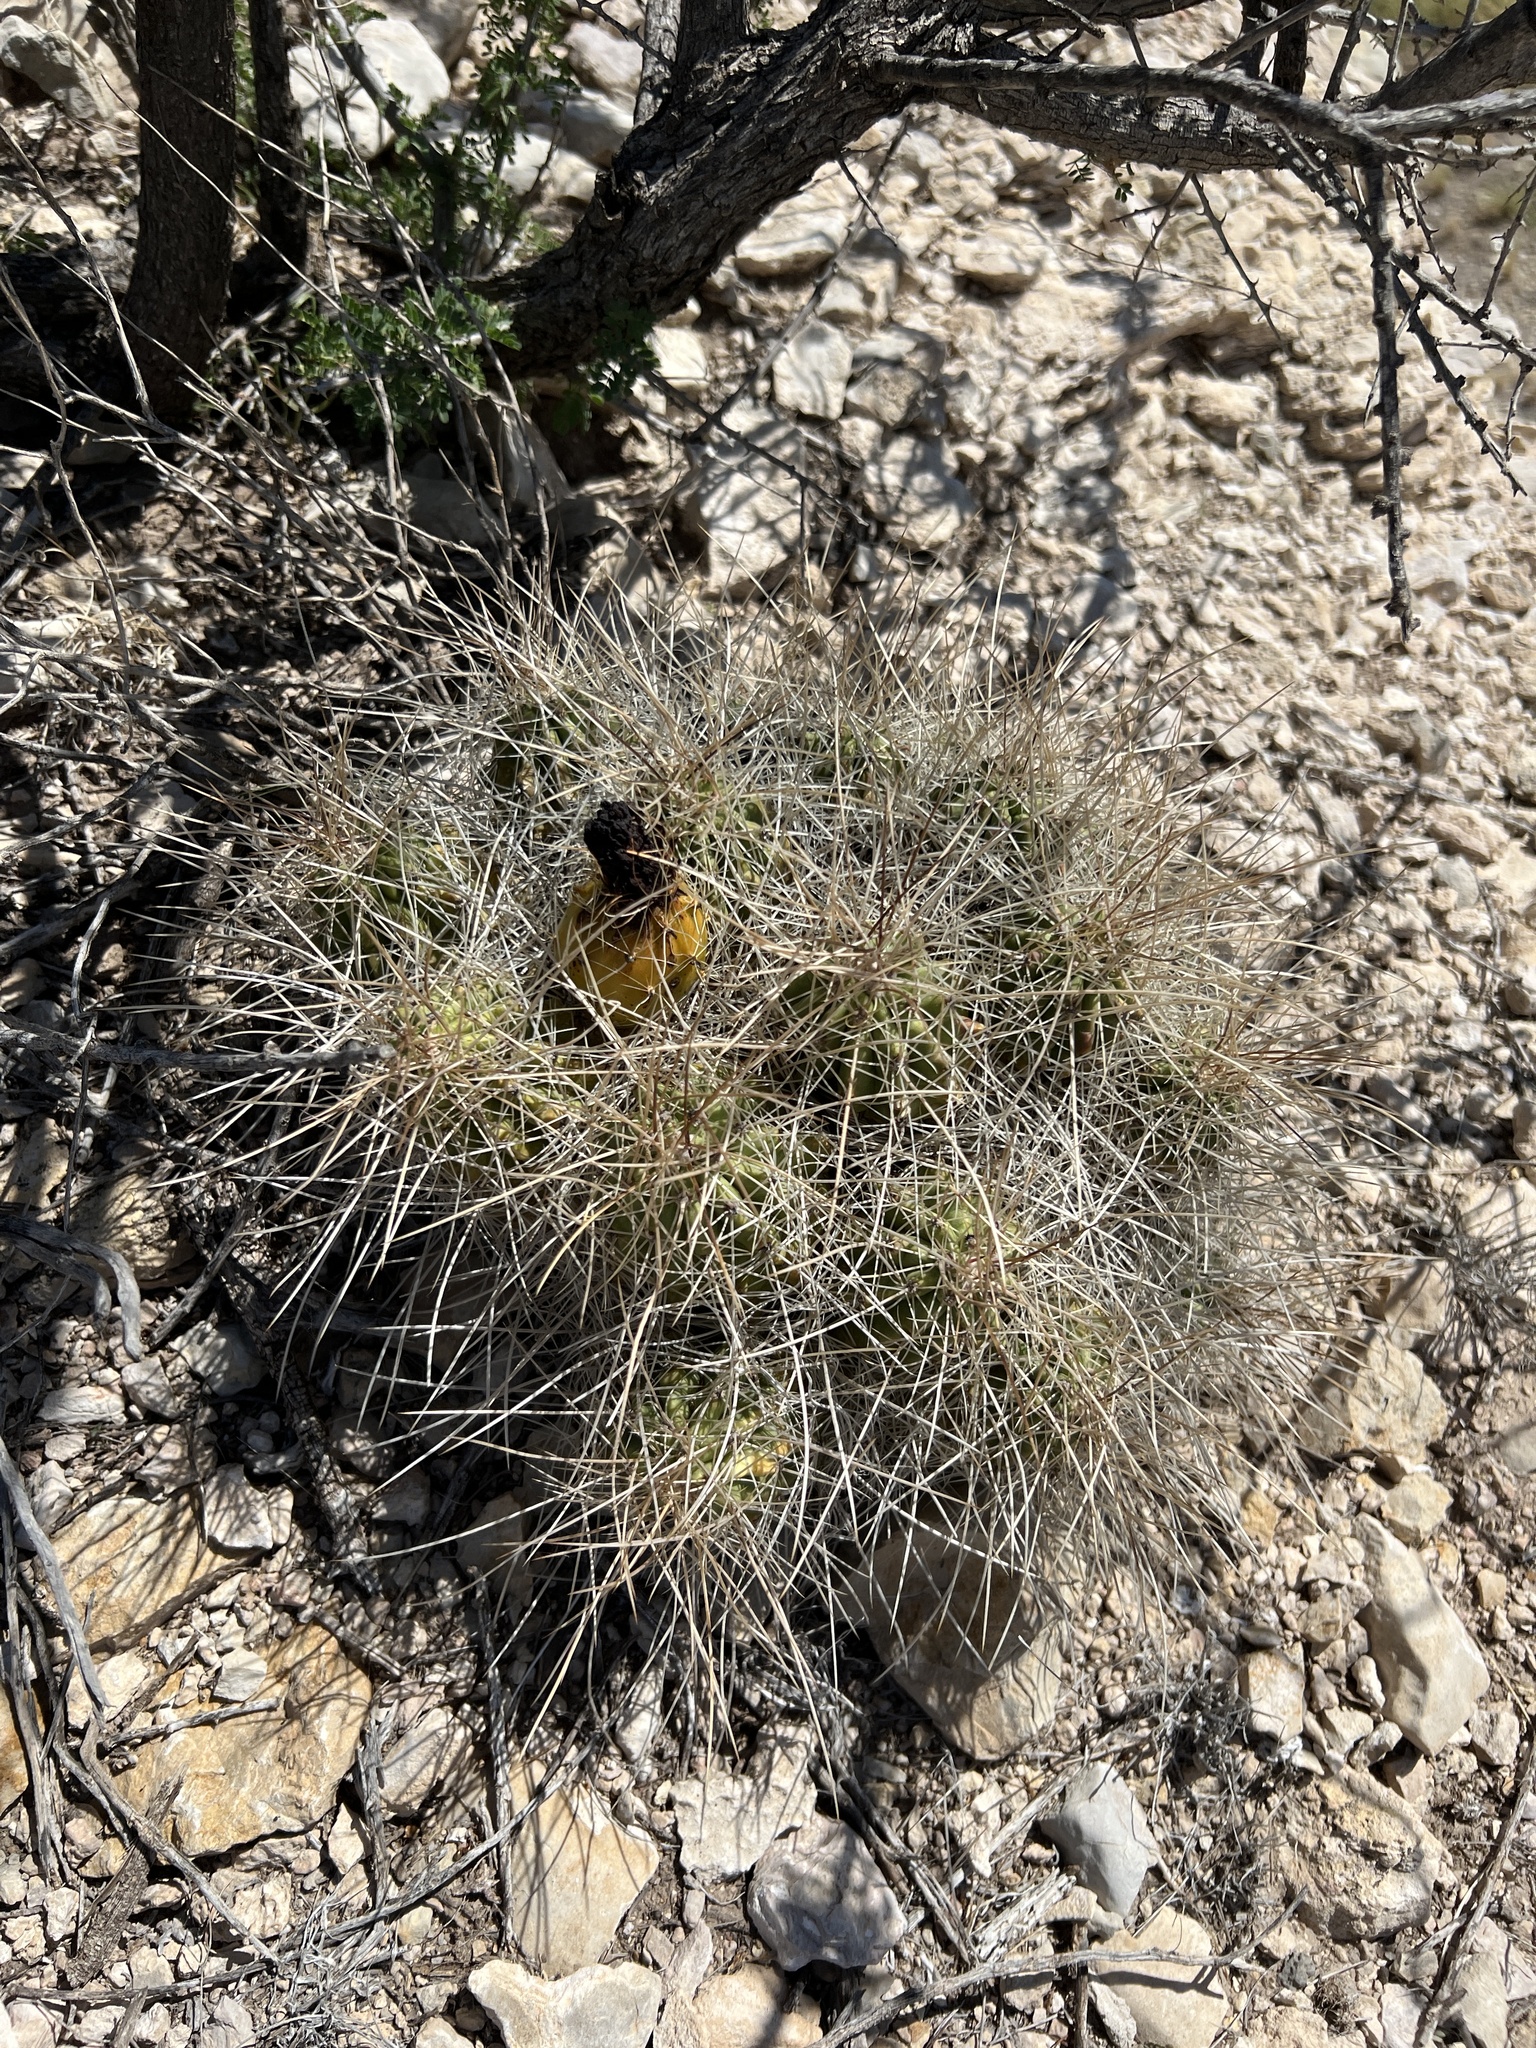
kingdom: Plantae
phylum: Tracheophyta
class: Magnoliopsida
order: Caryophyllales
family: Cactaceae
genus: Echinocereus
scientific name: Echinocereus stramineus
